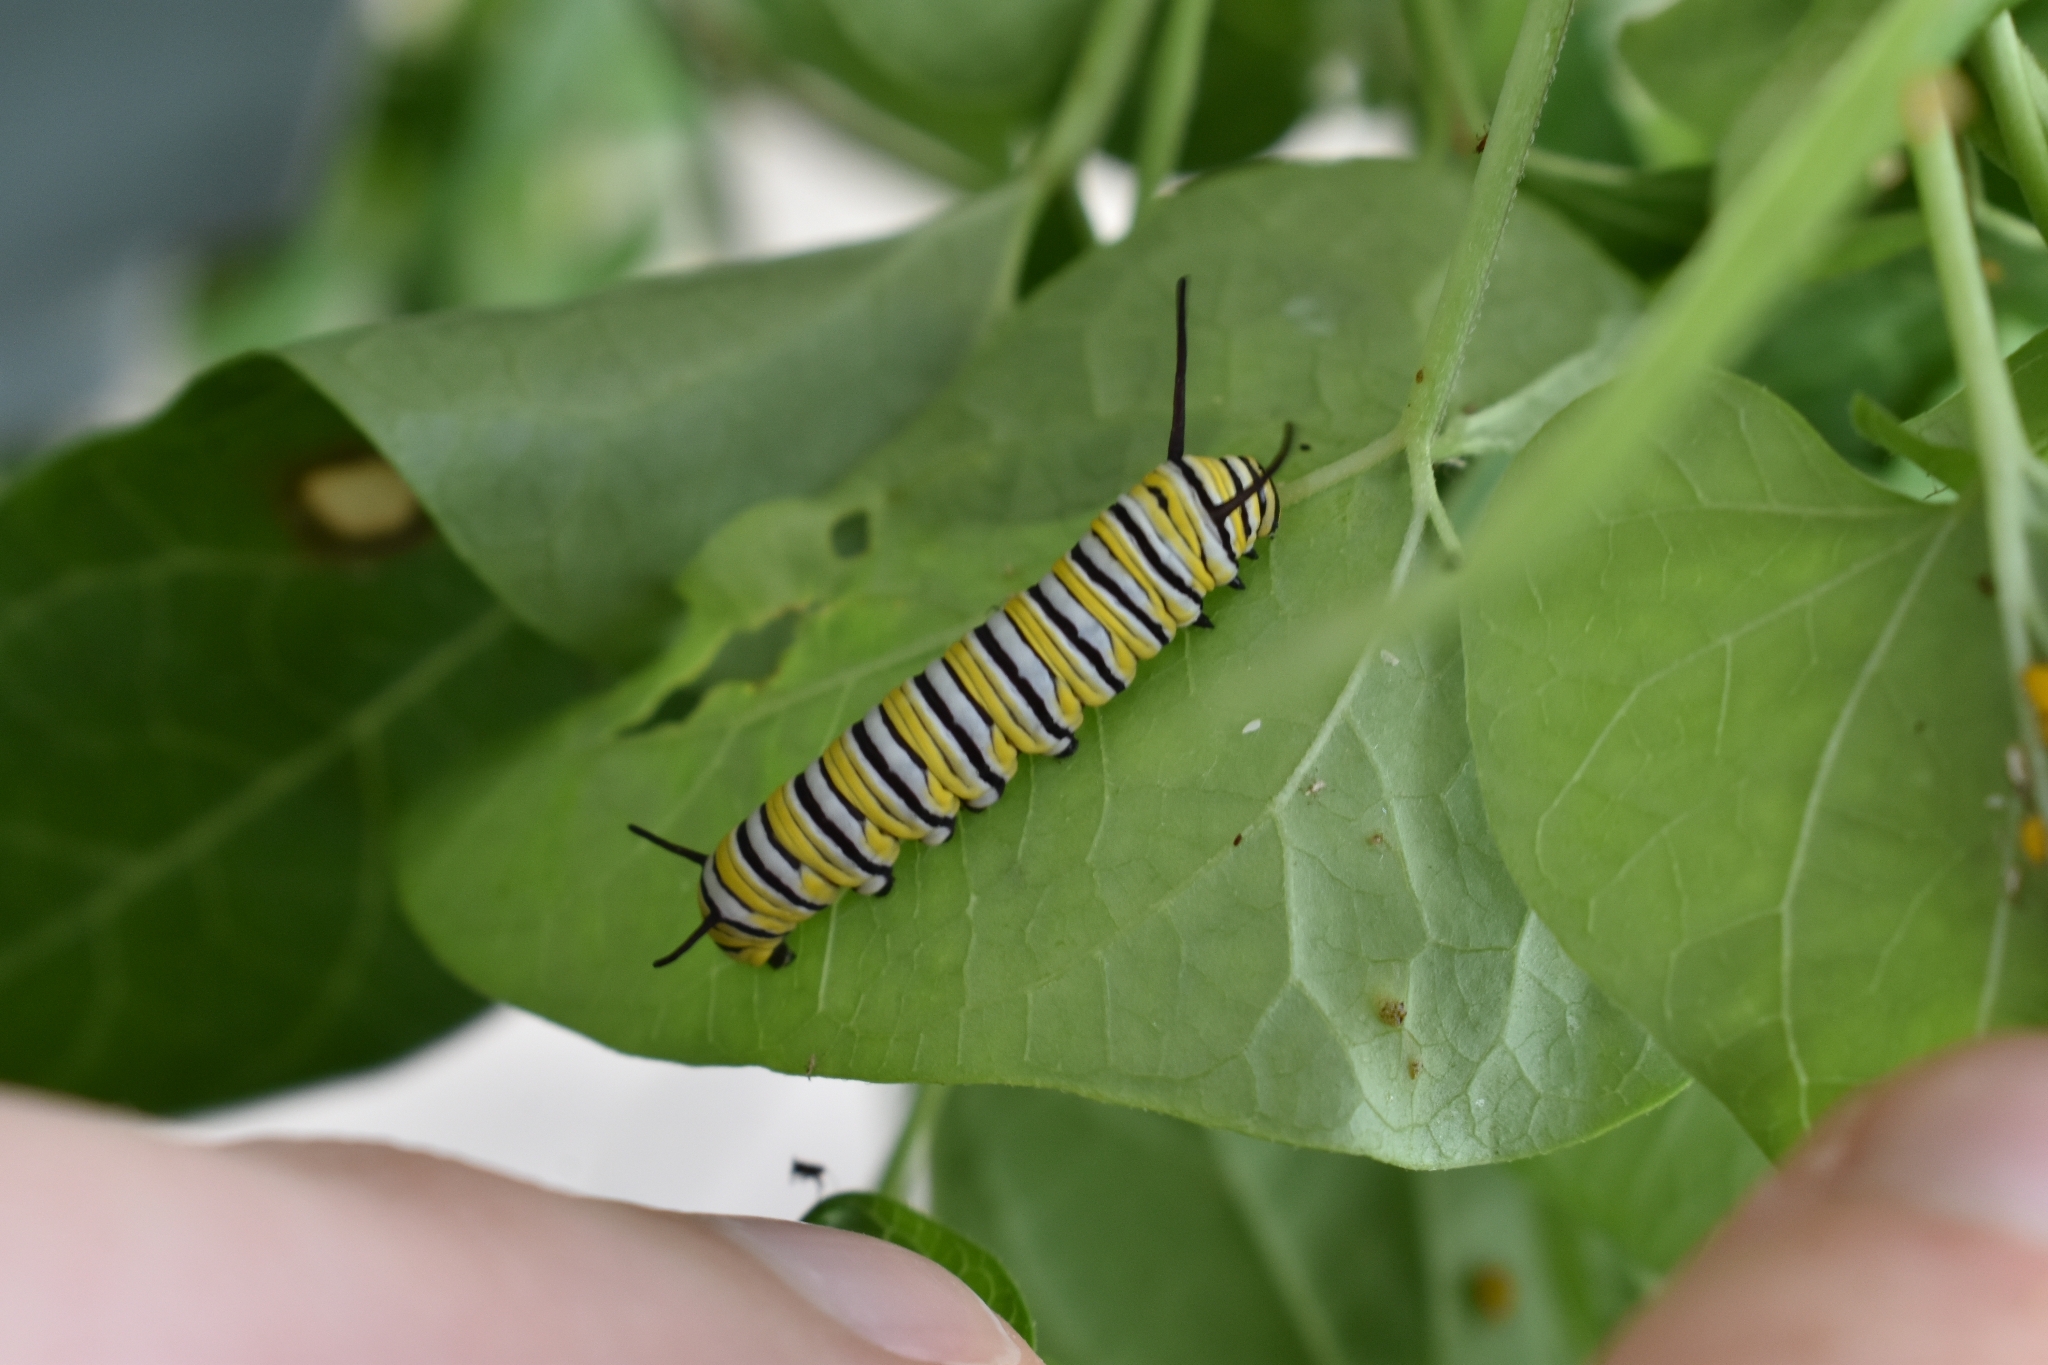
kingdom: Animalia
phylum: Arthropoda
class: Insecta
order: Lepidoptera
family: Nymphalidae
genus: Danaus
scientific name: Danaus plexippus
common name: Monarch
